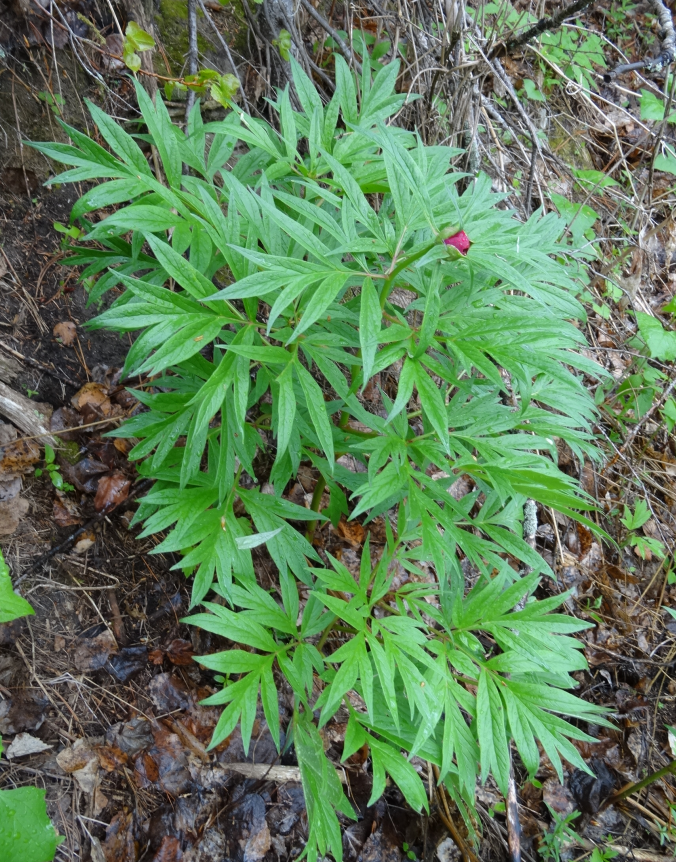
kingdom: Plantae
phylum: Tracheophyta
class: Magnoliopsida
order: Saxifragales
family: Paeoniaceae
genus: Paeonia
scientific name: Paeonia anomala
